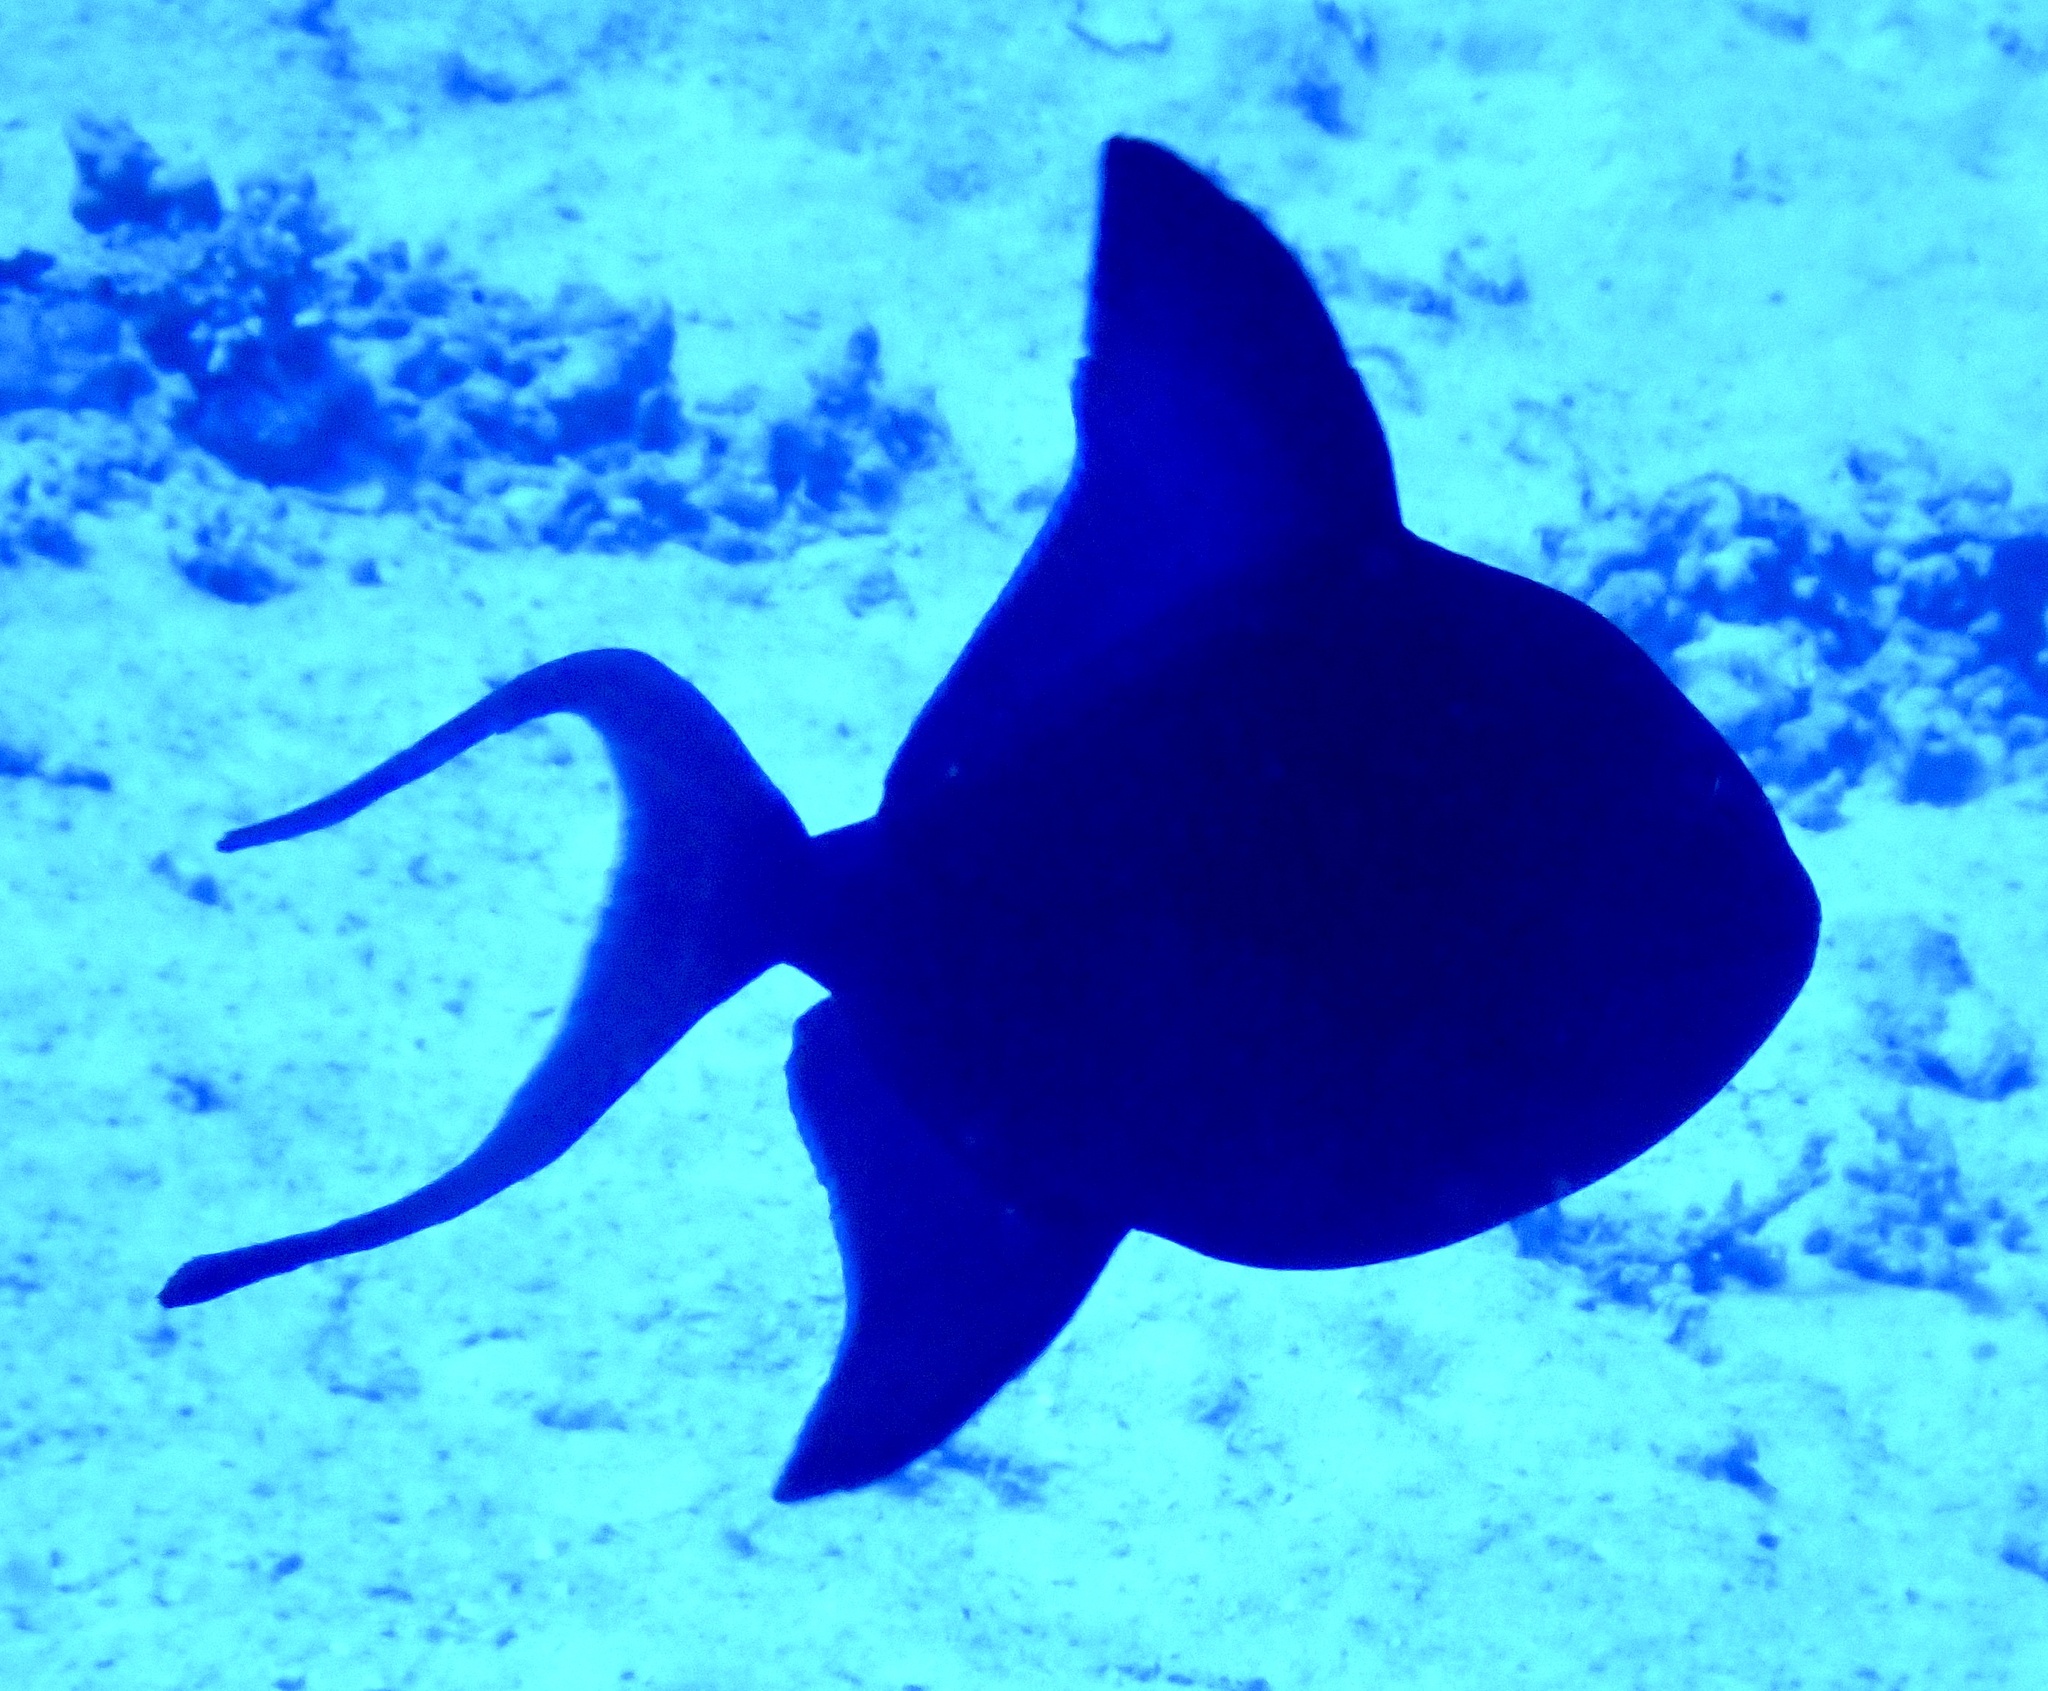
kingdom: Animalia
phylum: Chordata
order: Tetraodontiformes
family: Balistidae
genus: Odonus
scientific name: Odonus niger
